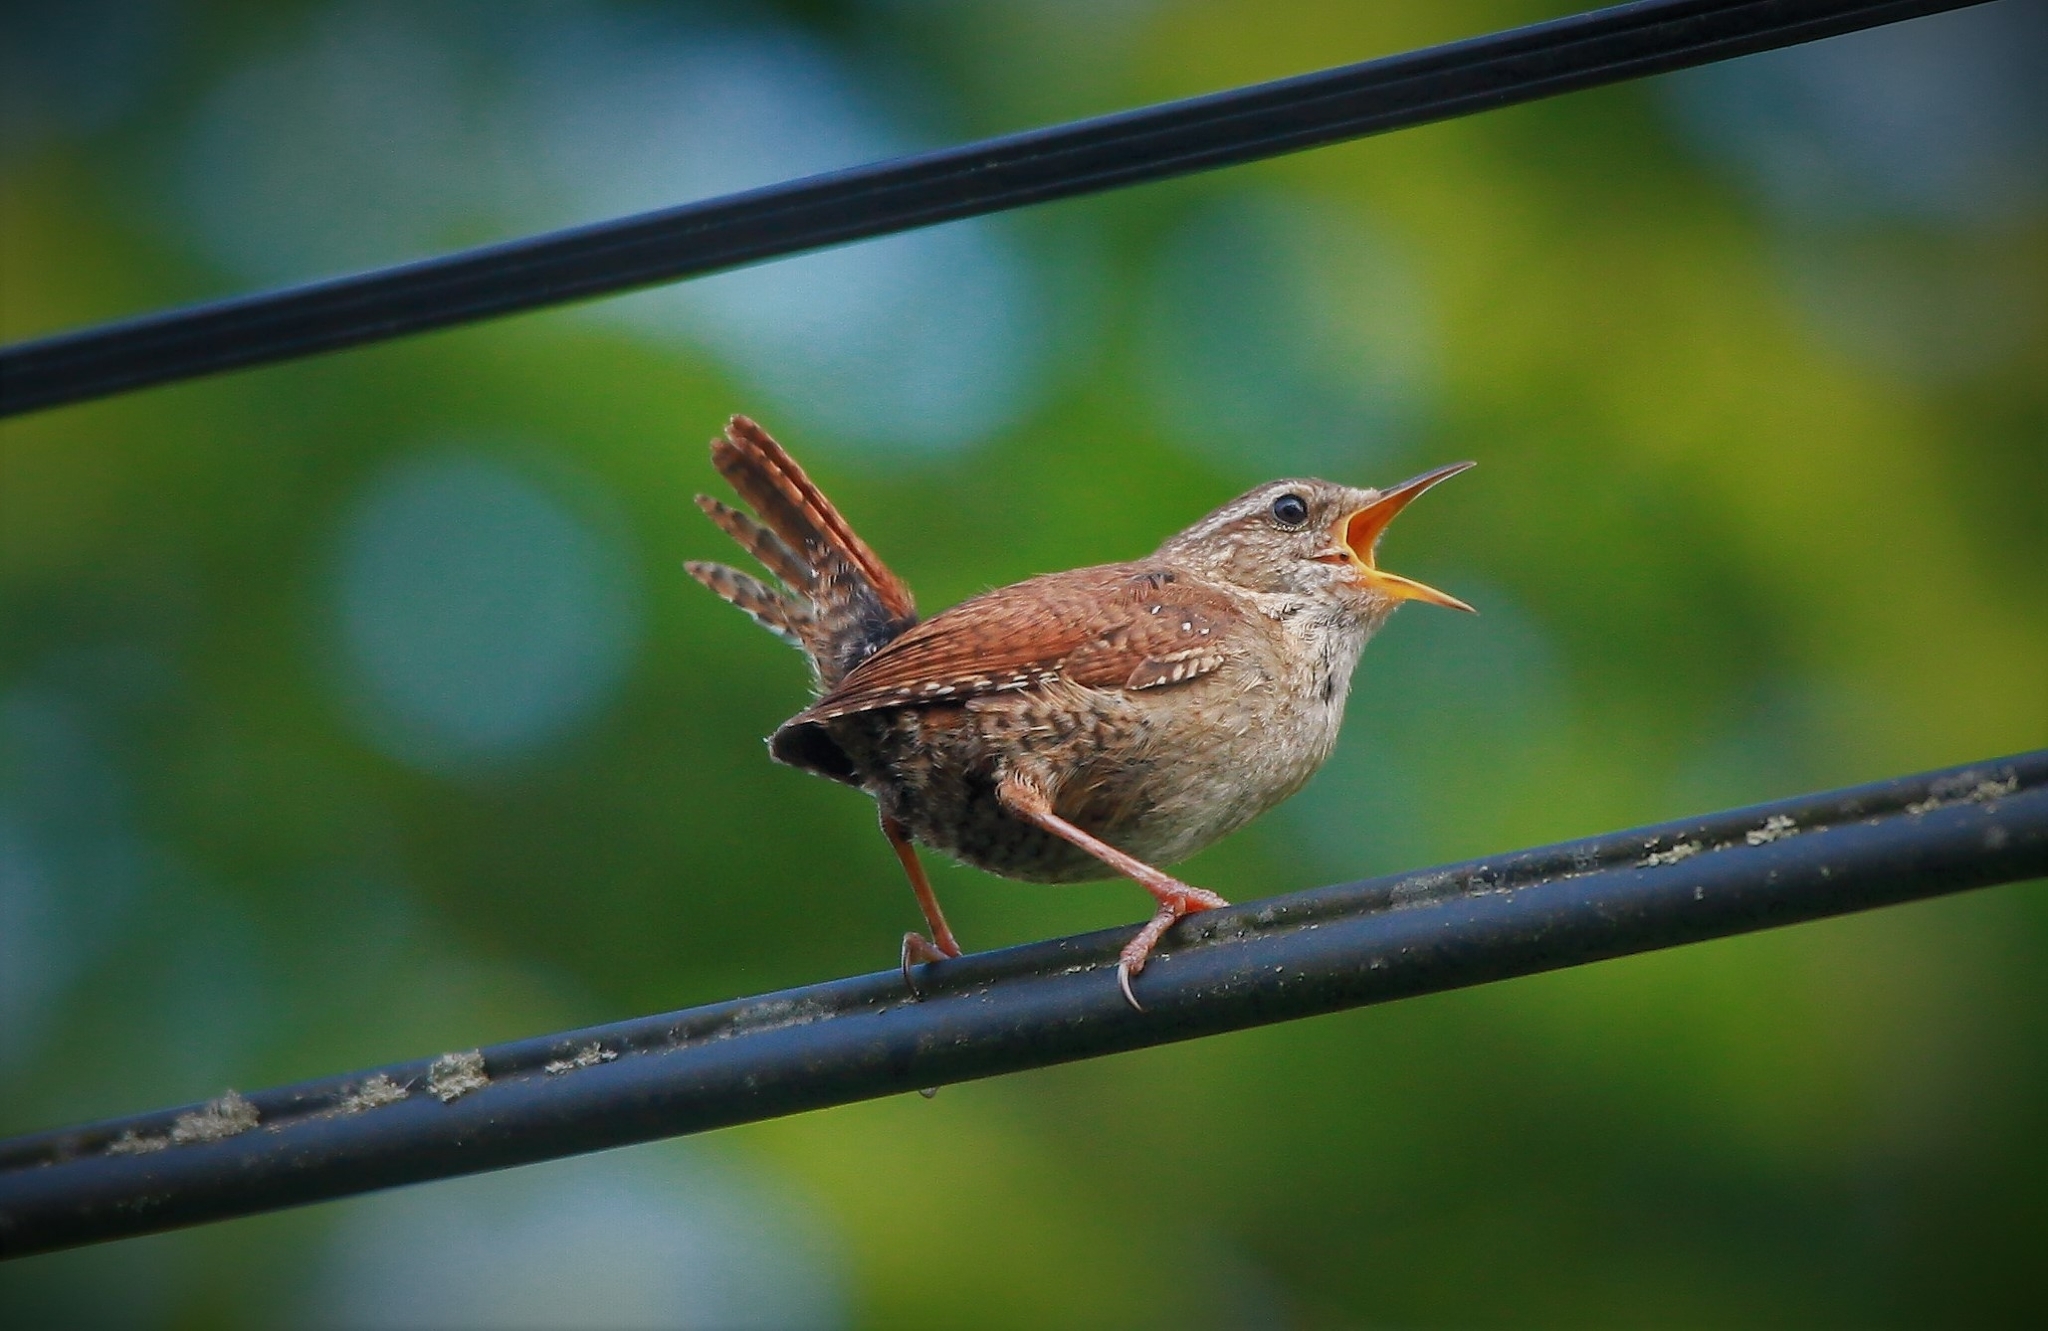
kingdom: Animalia
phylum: Chordata
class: Aves
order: Passeriformes
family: Troglodytidae
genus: Troglodytes
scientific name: Troglodytes troglodytes
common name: Eurasian wren
